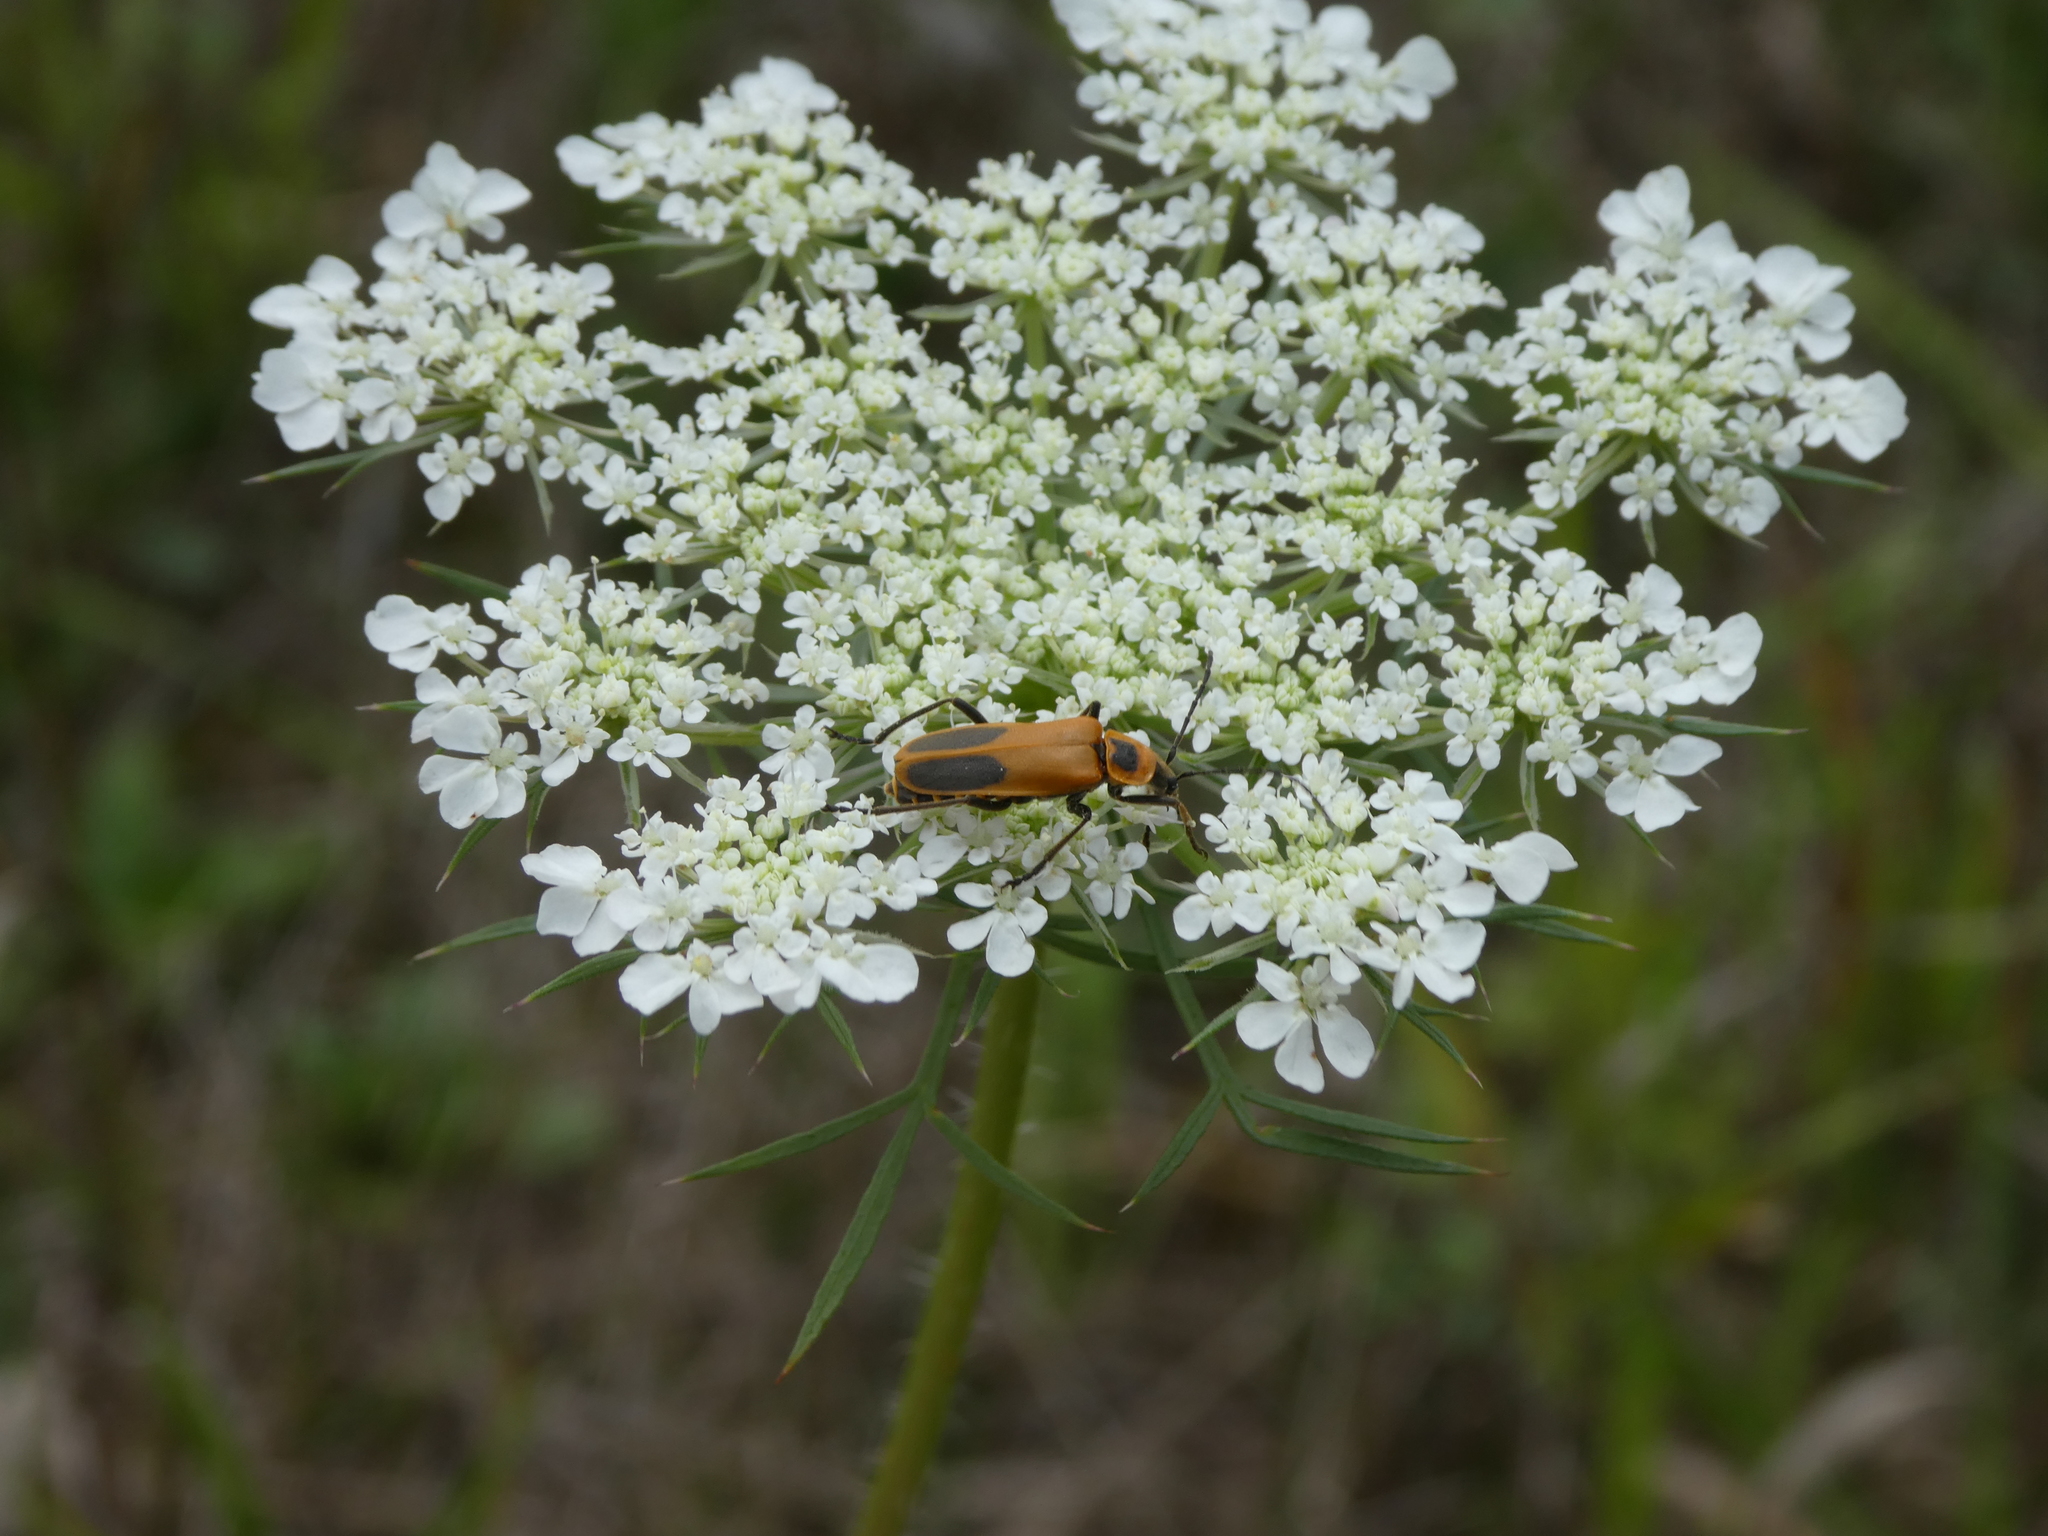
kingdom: Animalia
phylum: Arthropoda
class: Insecta
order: Coleoptera
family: Cantharidae
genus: Chauliognathus
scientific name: Chauliognathus pensylvanicus
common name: Goldenrod soldier beetle
